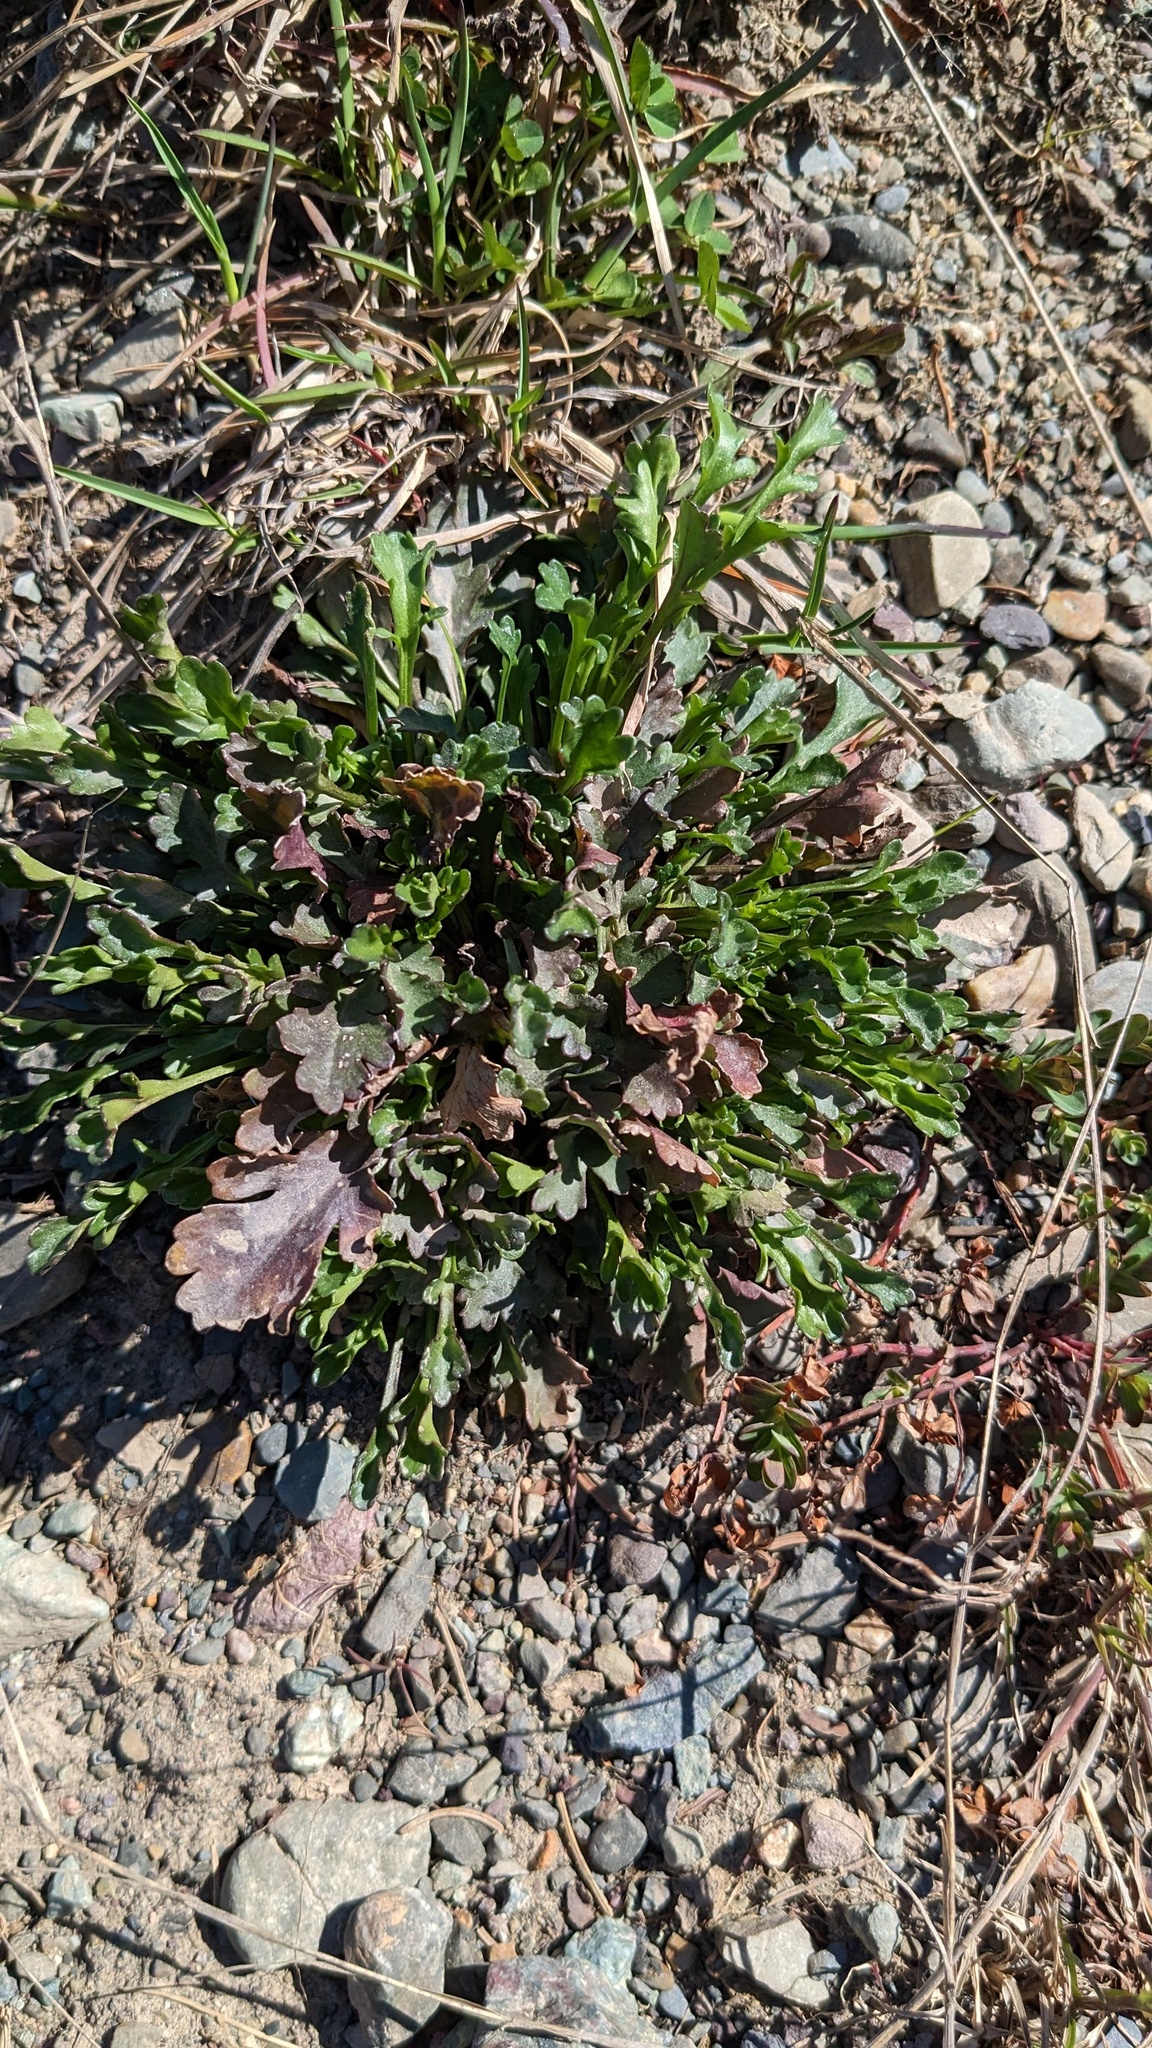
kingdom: Plantae
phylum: Tracheophyta
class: Magnoliopsida
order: Asterales
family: Asteraceae
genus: Leucanthemum
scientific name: Leucanthemum vulgare
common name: Oxeye daisy
